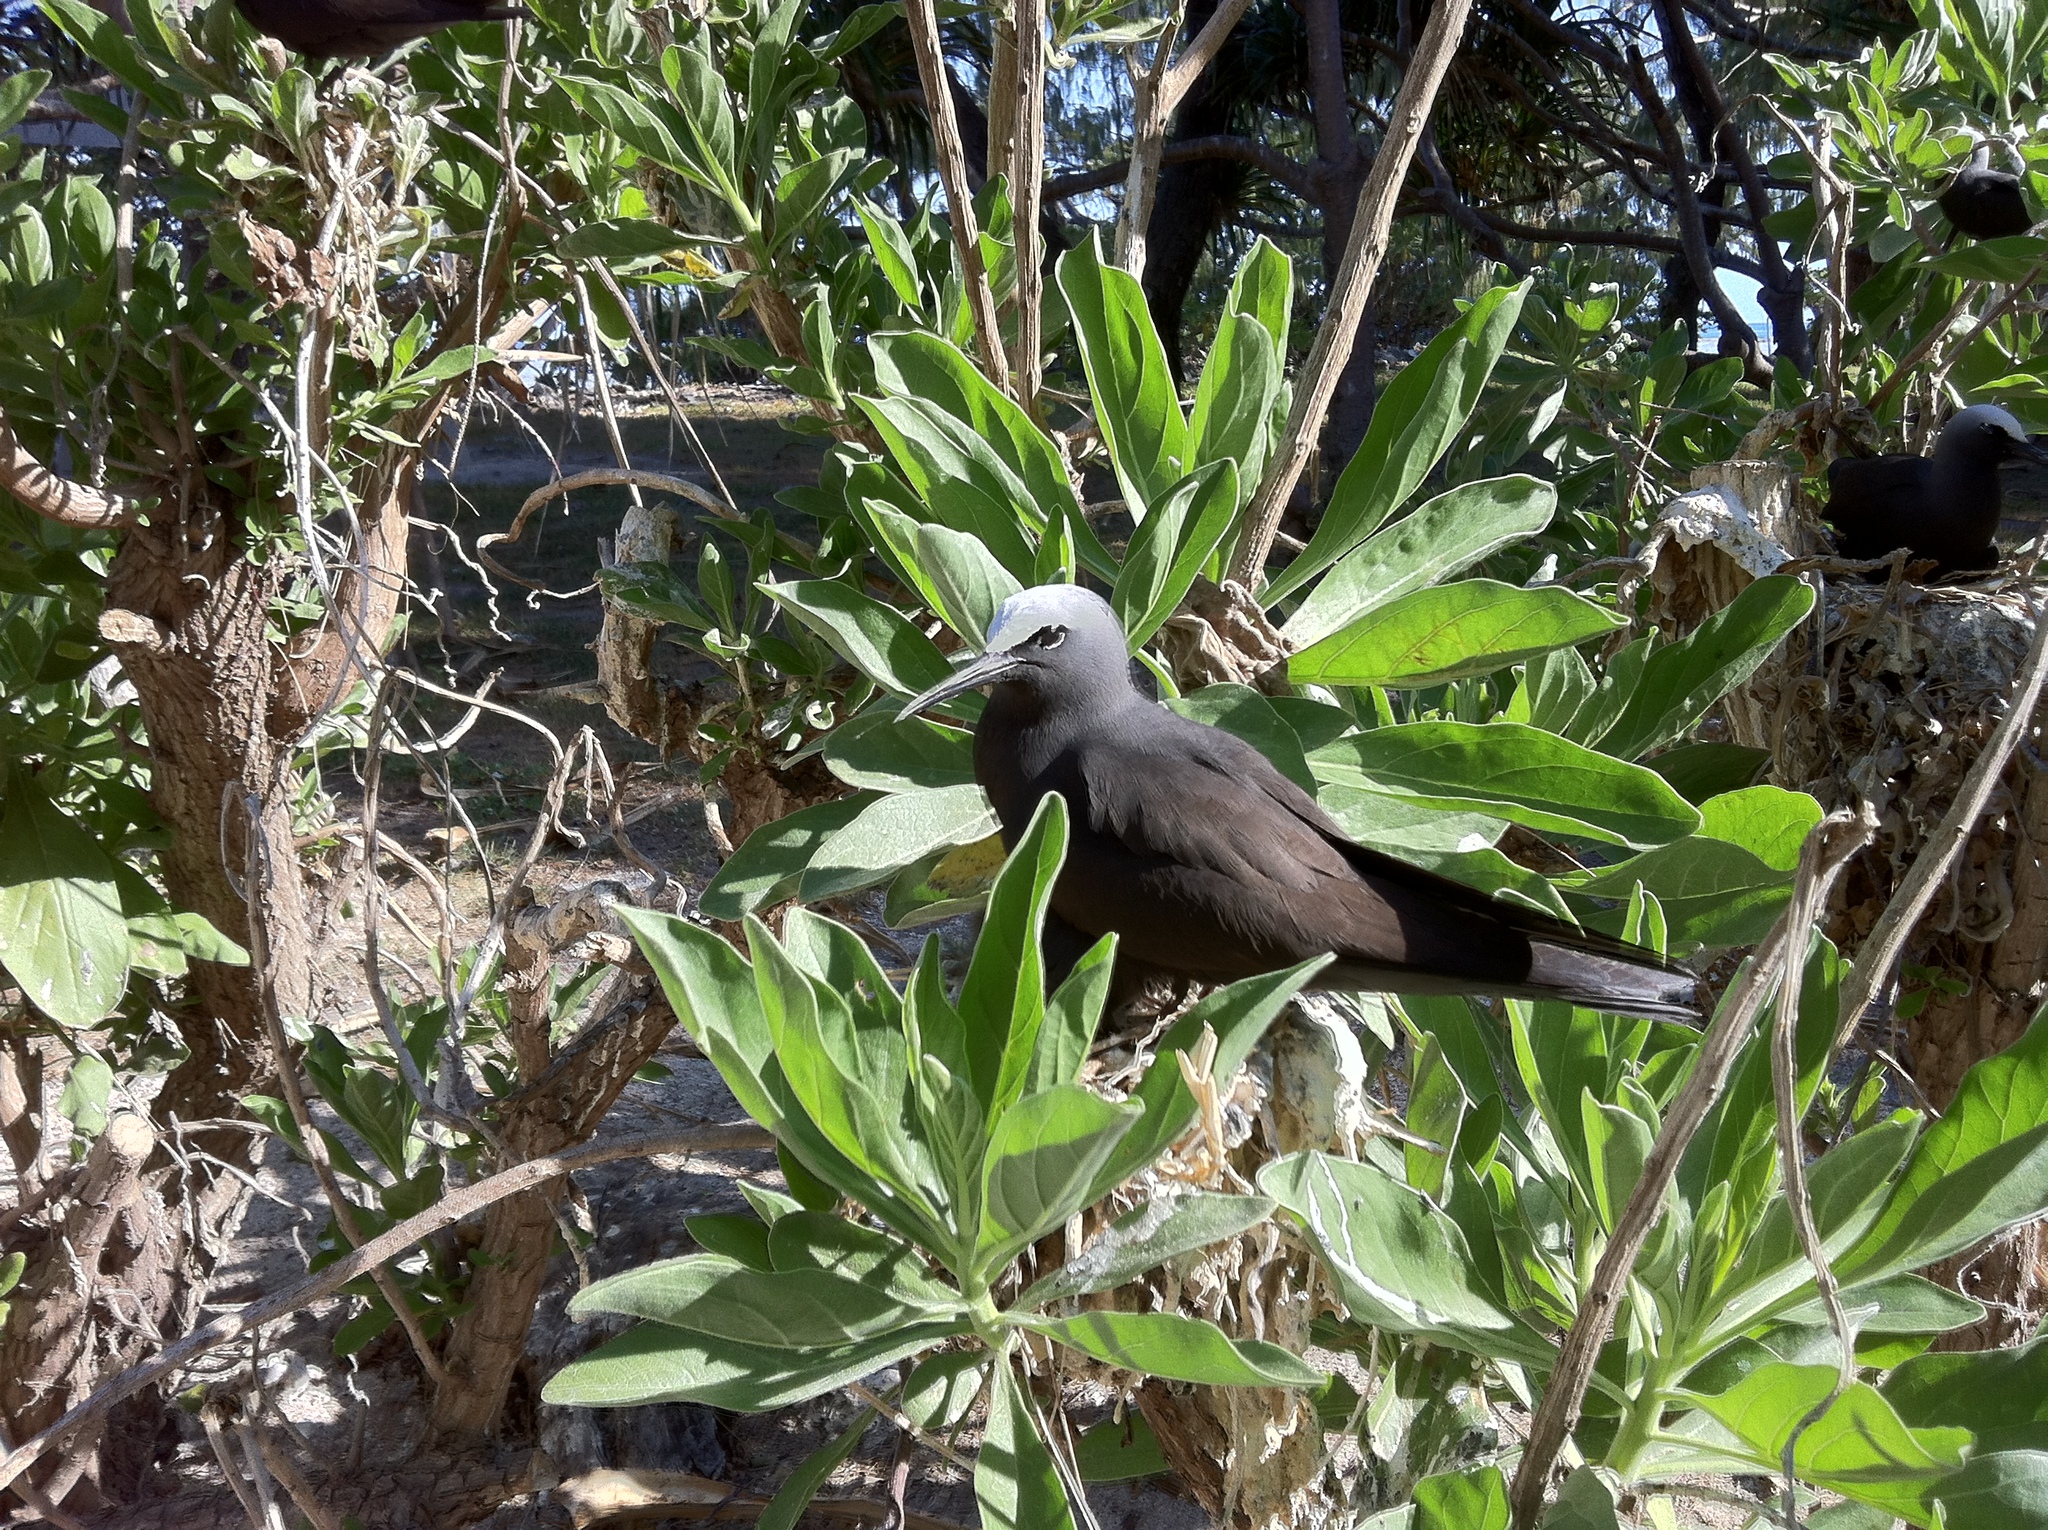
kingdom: Animalia
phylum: Chordata
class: Aves
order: Charadriiformes
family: Laridae
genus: Anous
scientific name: Anous stolidus
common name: Brown noddy
